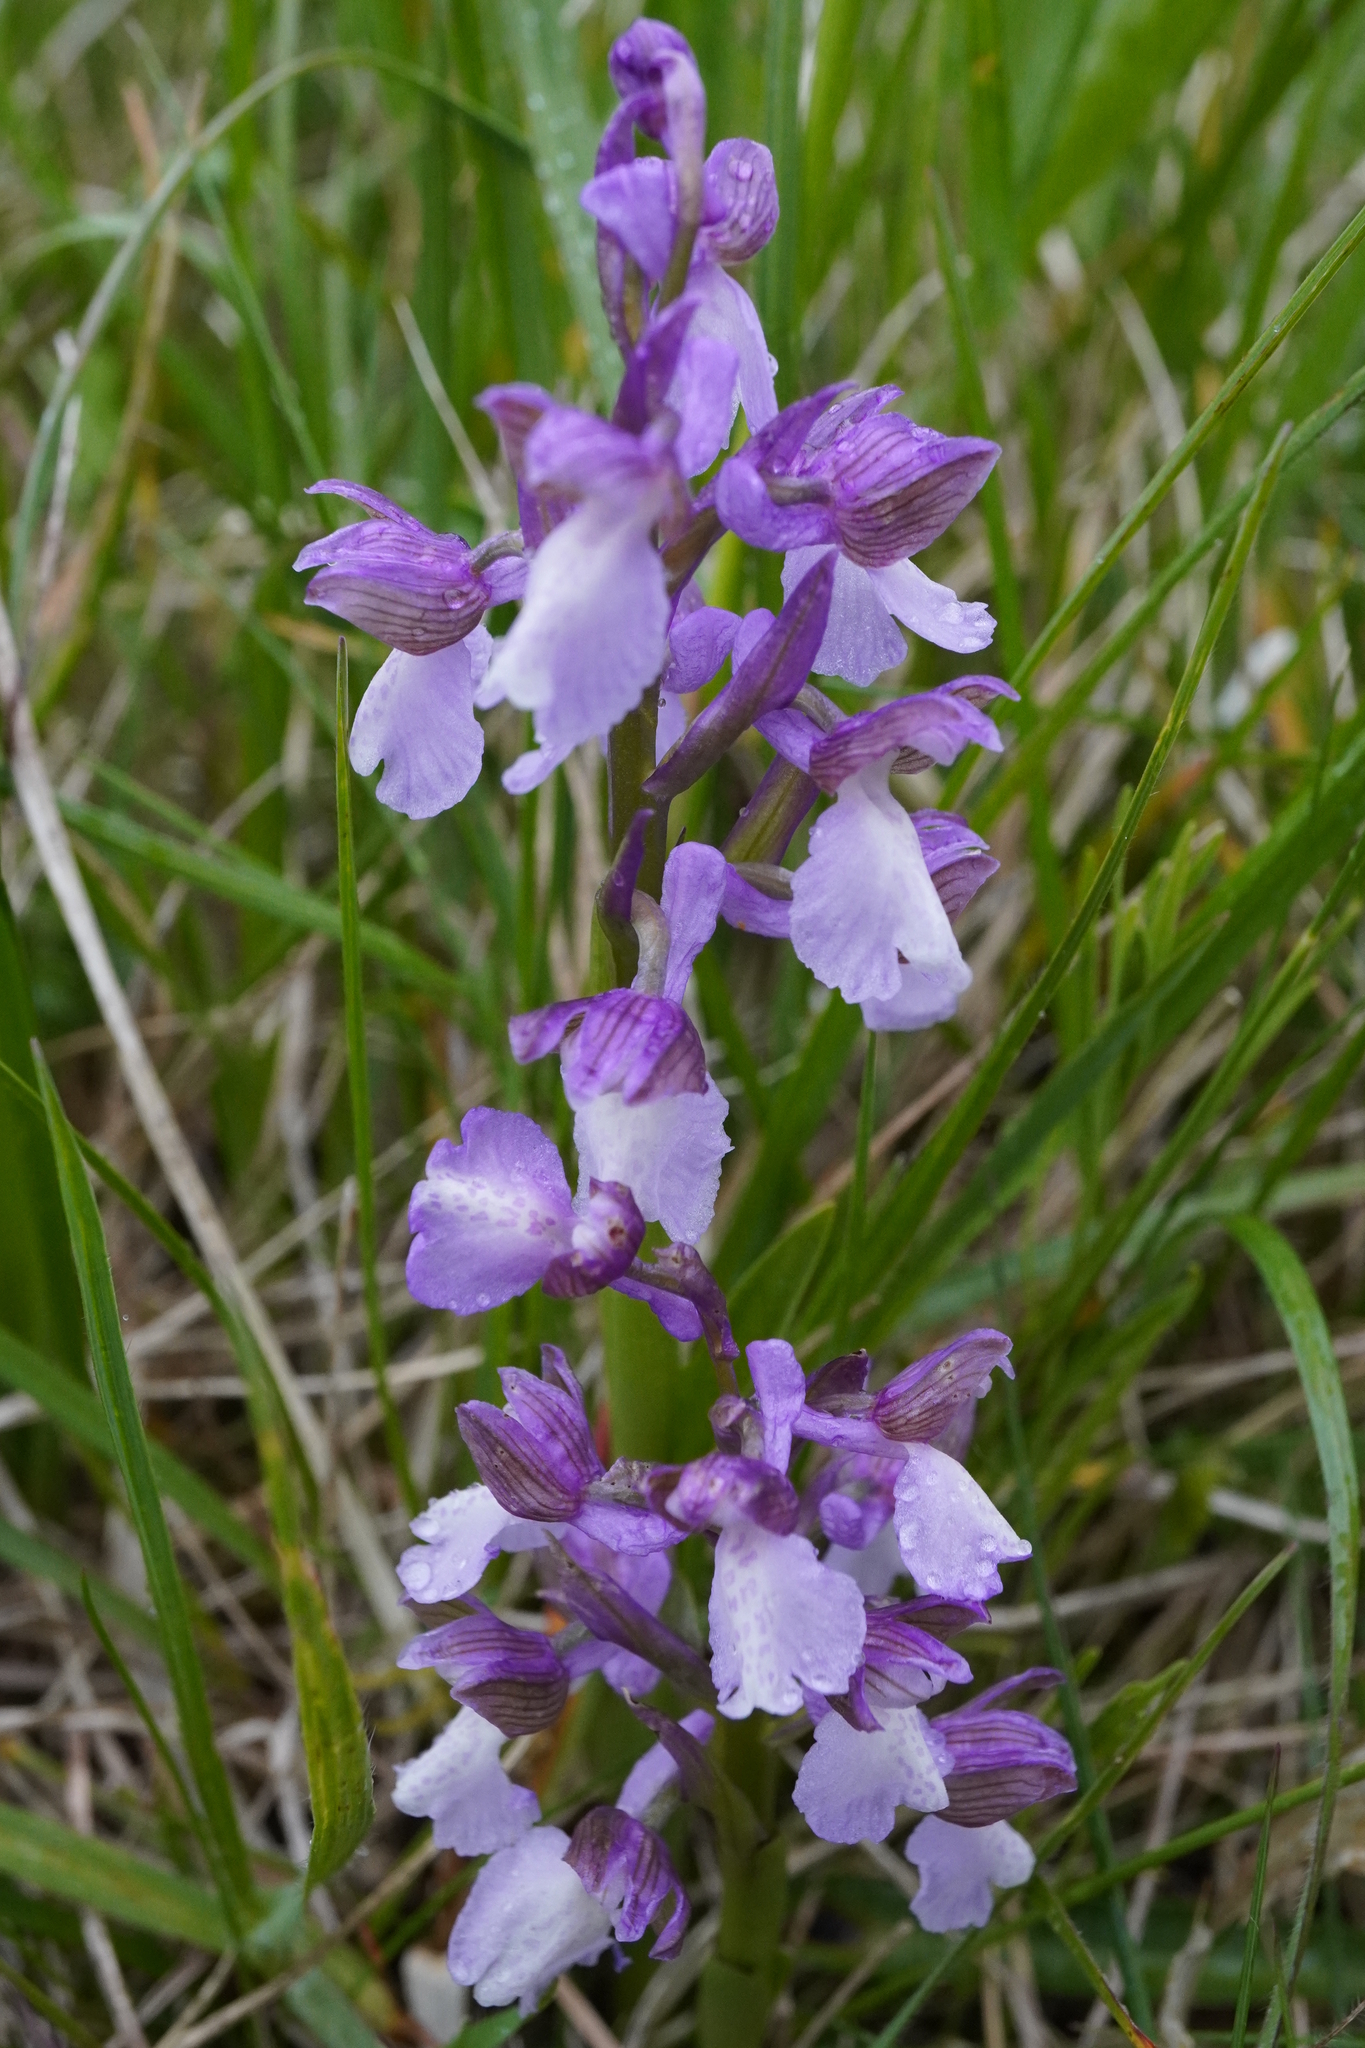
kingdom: Plantae
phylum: Tracheophyta
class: Liliopsida
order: Asparagales
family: Orchidaceae
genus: Anacamptis
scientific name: Anacamptis morio
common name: Green-winged orchid
